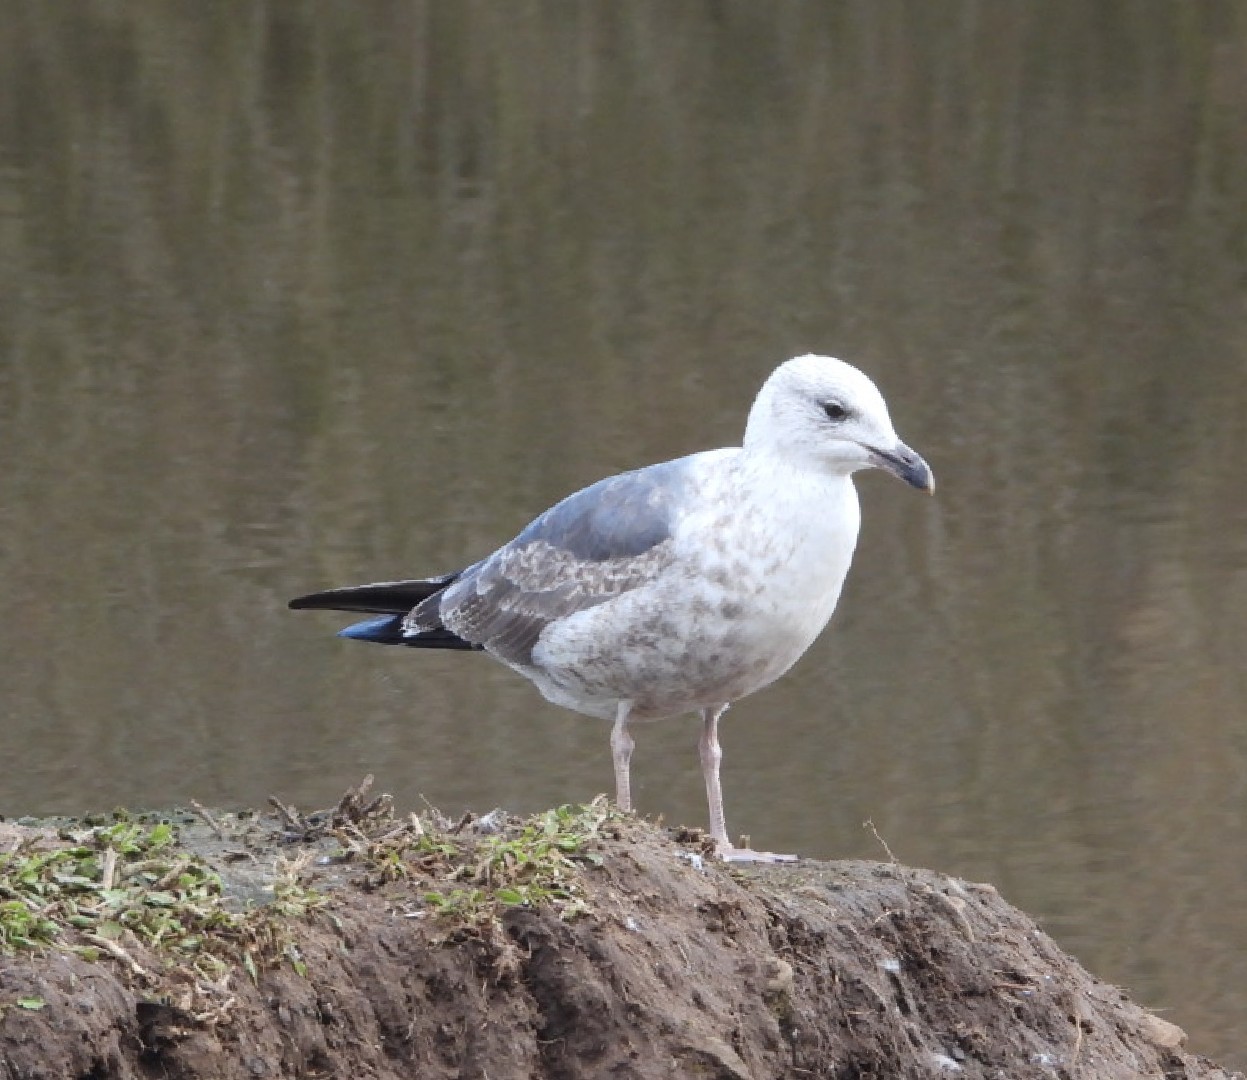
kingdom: Animalia
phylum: Chordata
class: Aves
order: Charadriiformes
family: Laridae
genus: Larus
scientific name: Larus argentatus
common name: Herring gull
